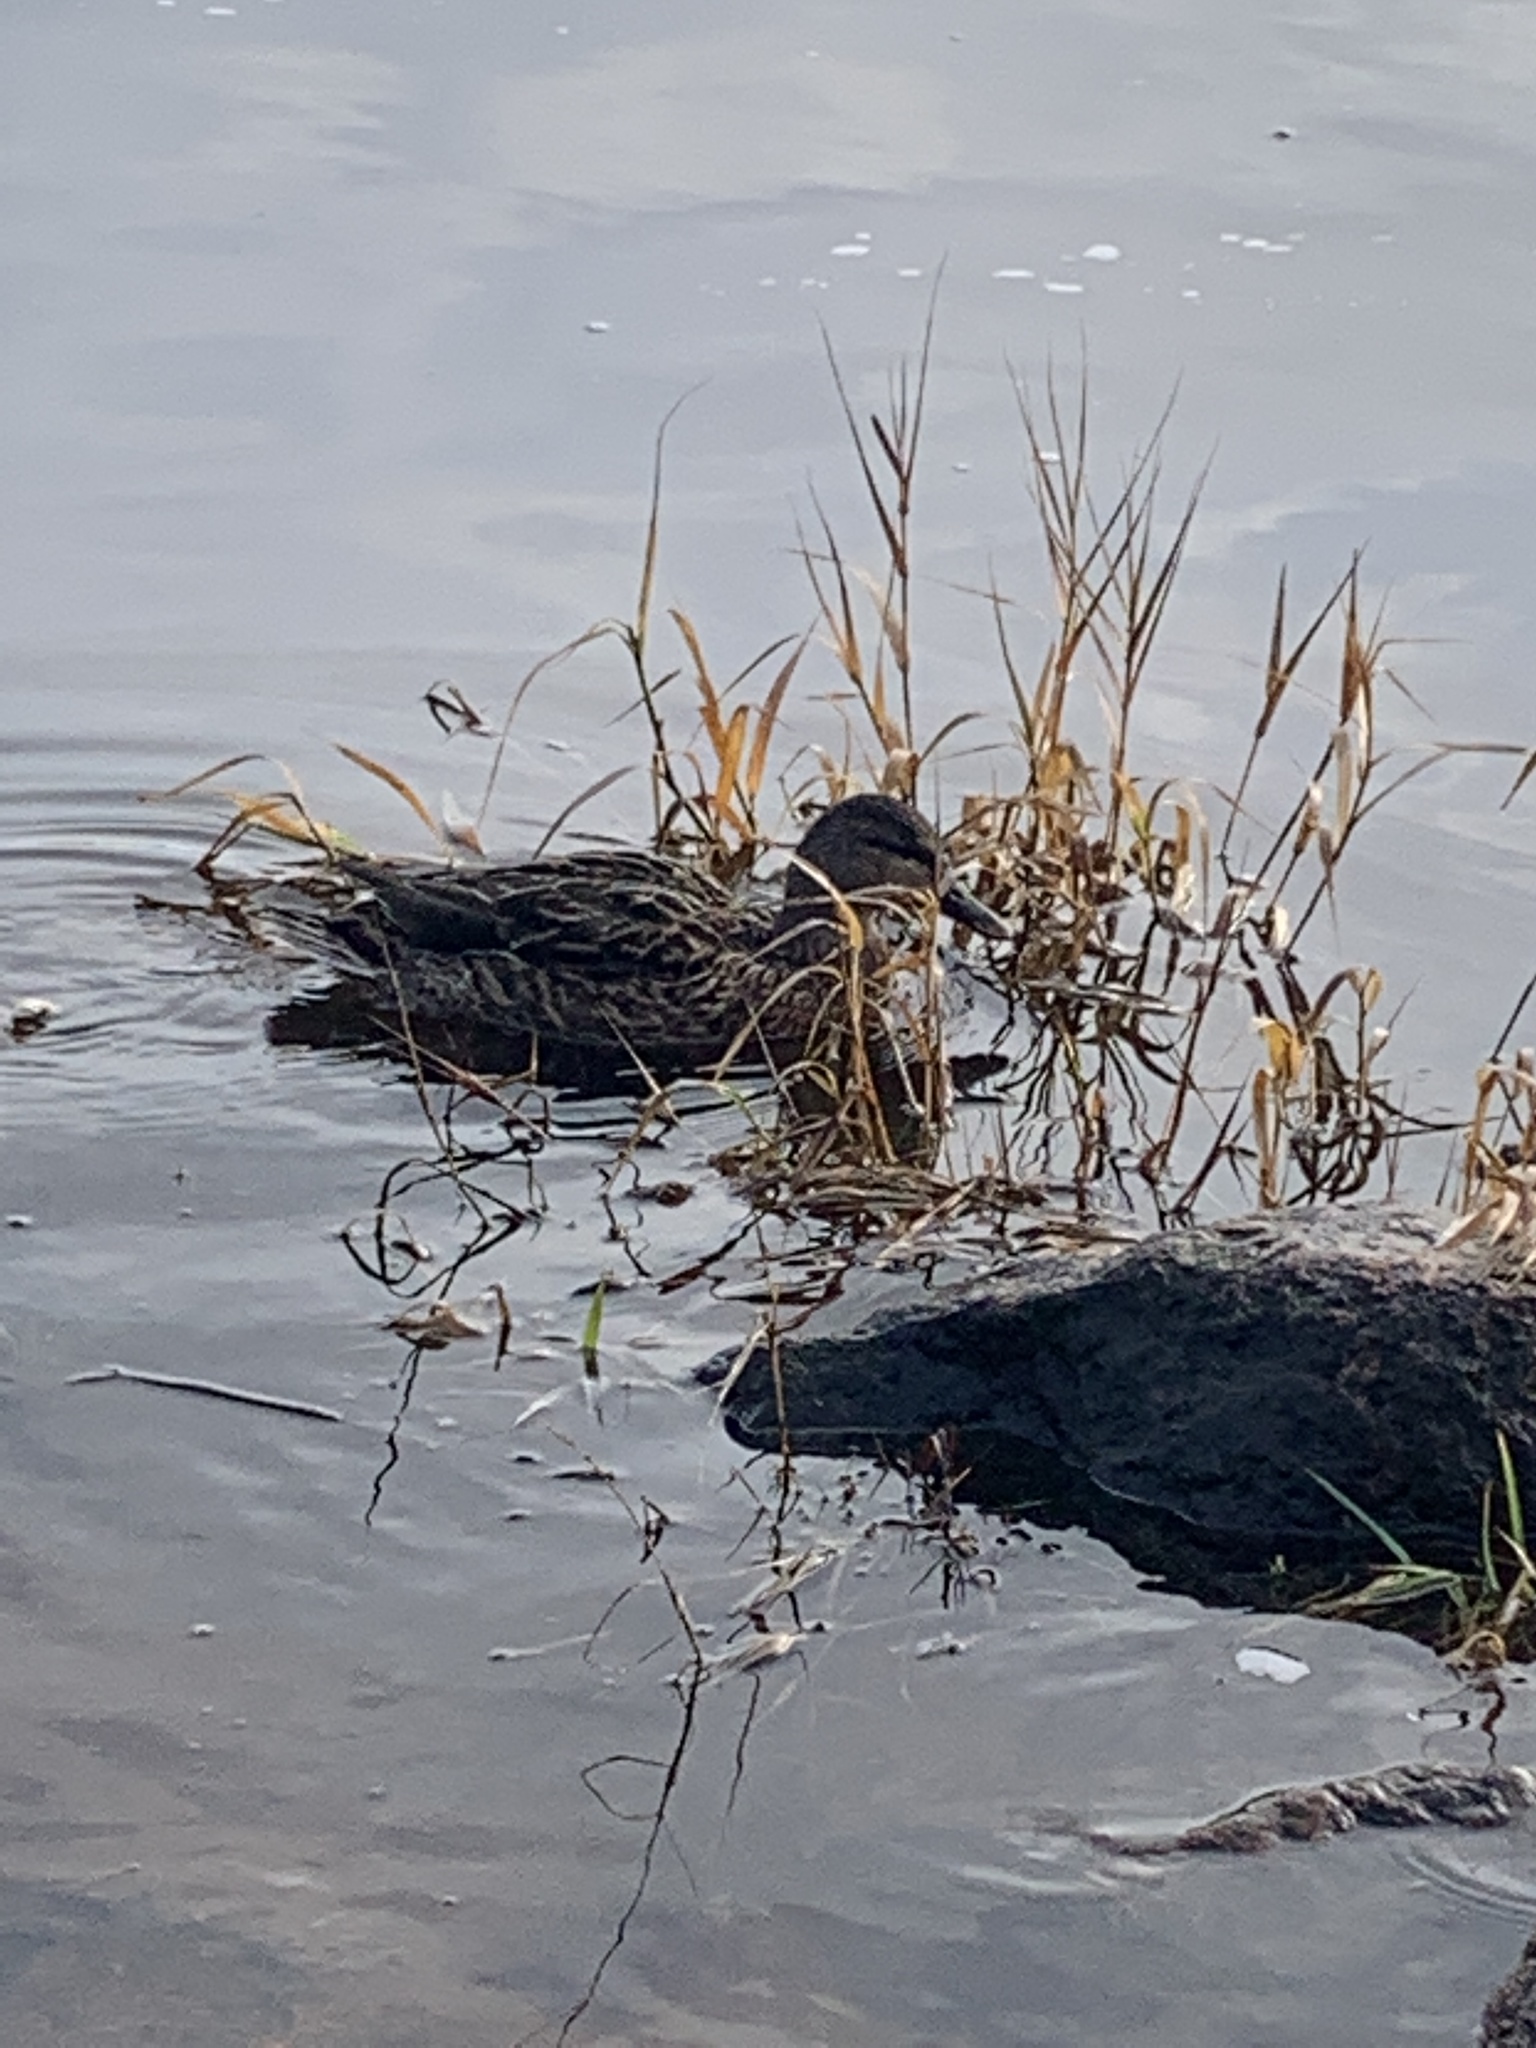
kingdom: Animalia
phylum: Chordata
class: Aves
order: Anseriformes
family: Anatidae
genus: Anas
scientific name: Anas platyrhynchos
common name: Mallard
